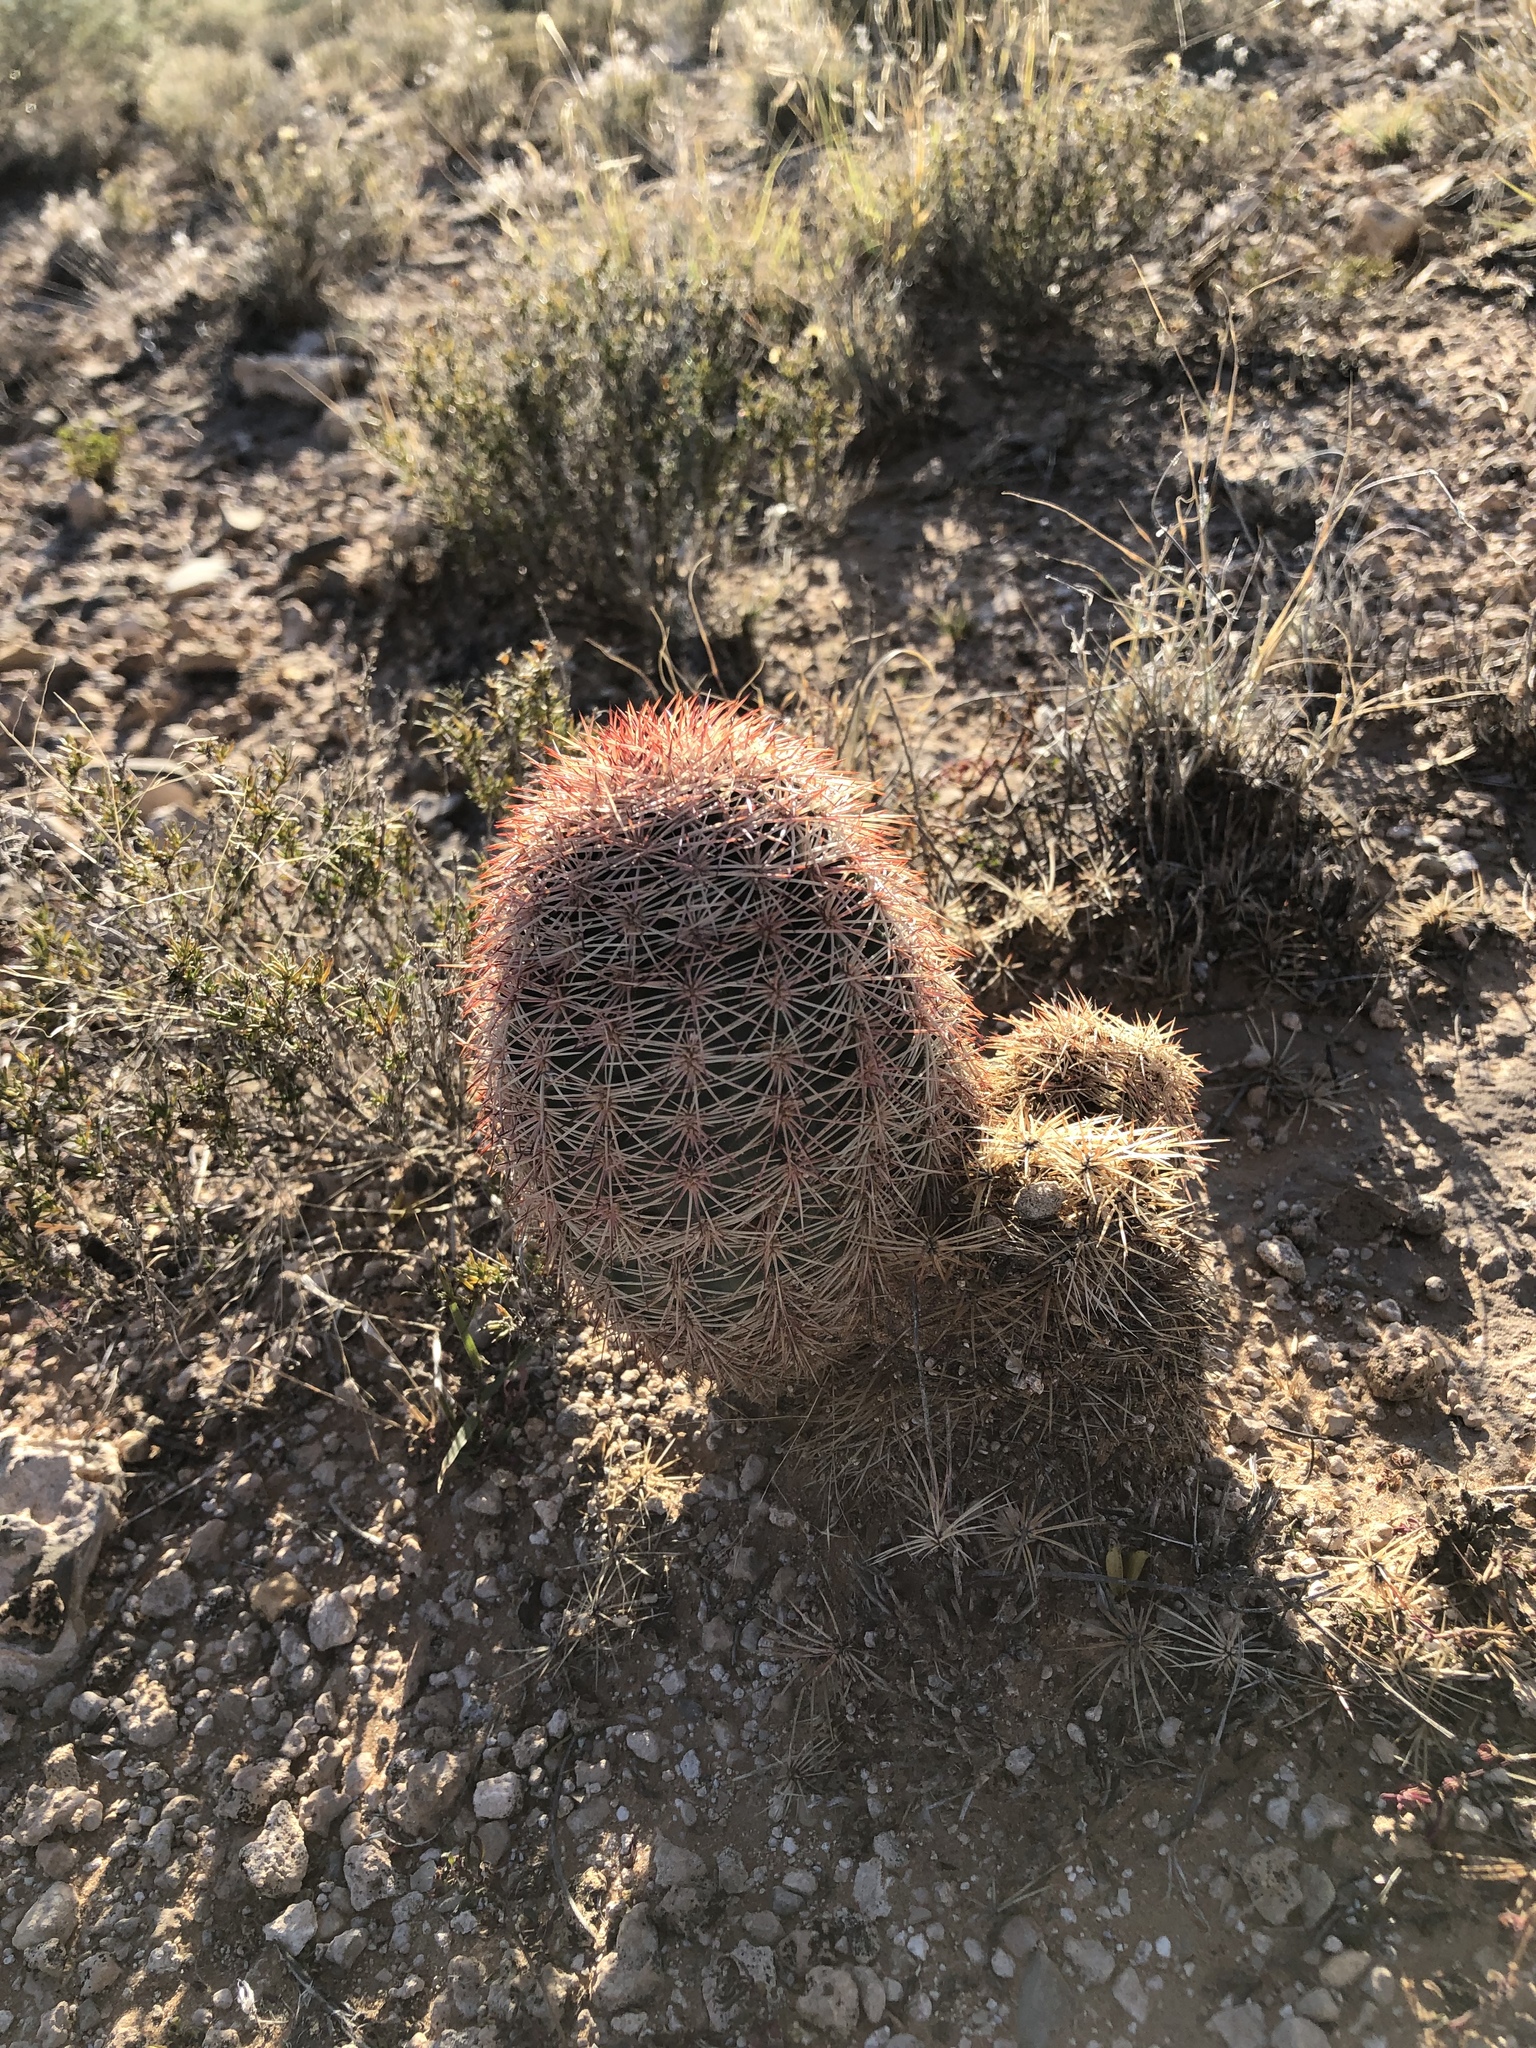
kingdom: Plantae
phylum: Tracheophyta
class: Magnoliopsida
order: Caryophyllales
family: Cactaceae
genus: Echinocereus
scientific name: Echinocereus dasyacanthus
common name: Spiny hedgehog cactus
